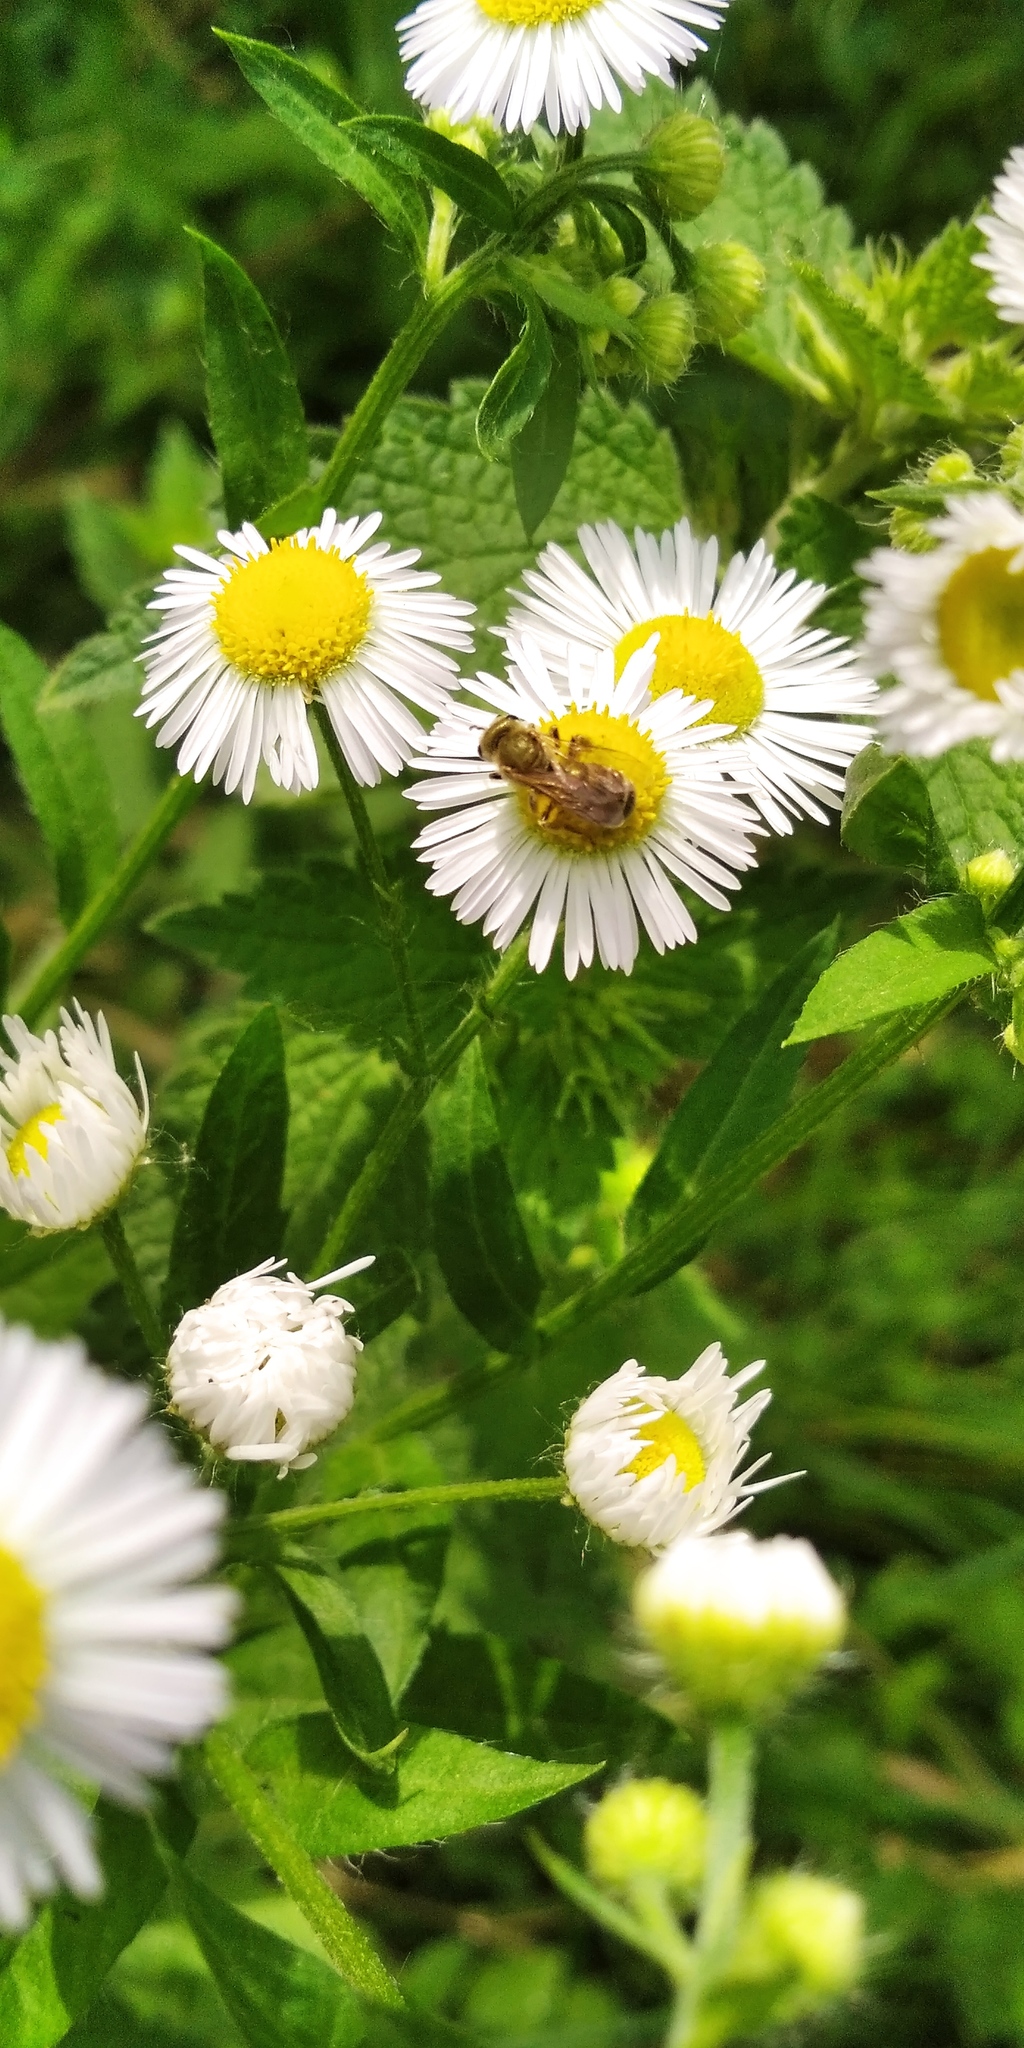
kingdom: Animalia
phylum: Arthropoda
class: Insecta
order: Hymenoptera
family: Halictidae
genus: Halictus
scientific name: Halictus subauratus
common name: Golden furrow bee
